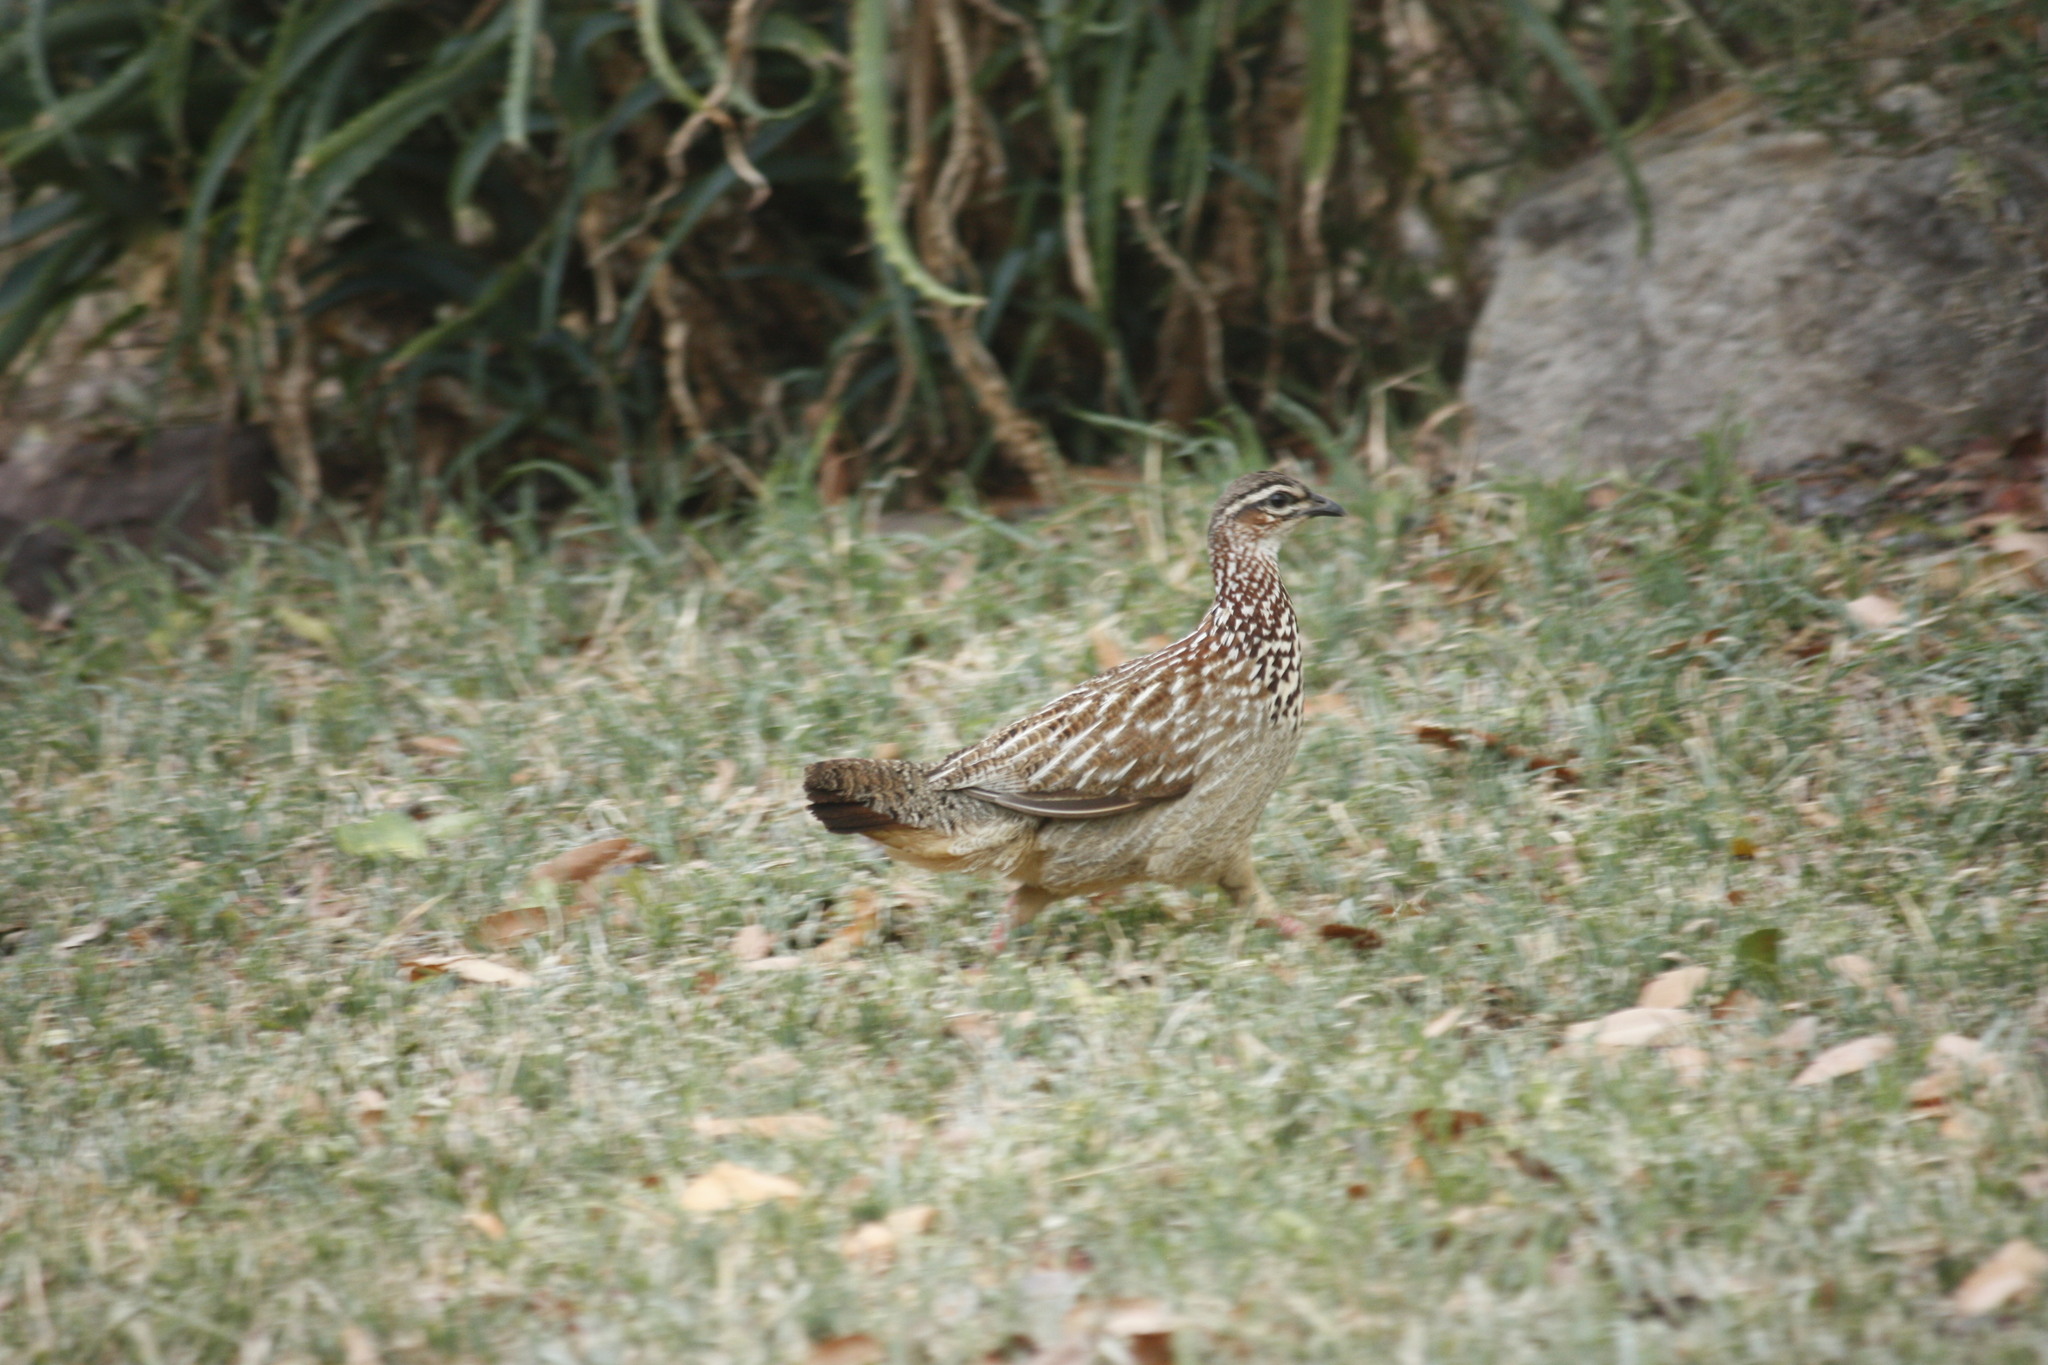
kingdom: Animalia
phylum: Chordata
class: Aves
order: Galliformes
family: Phasianidae
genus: Ortygornis
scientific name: Ortygornis sephaena
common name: Crested francolin
